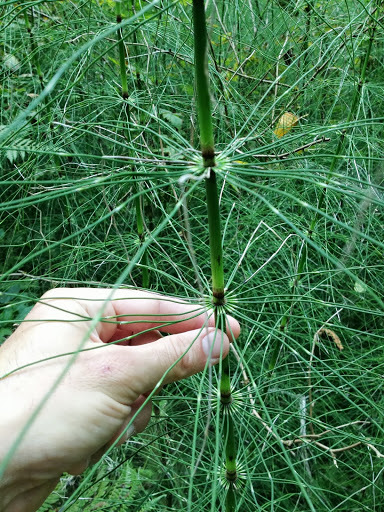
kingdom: Plantae
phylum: Tracheophyta
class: Polypodiopsida
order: Equisetales
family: Equisetaceae
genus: Equisetum
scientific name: Equisetum braunii
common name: Braun's horsetail
